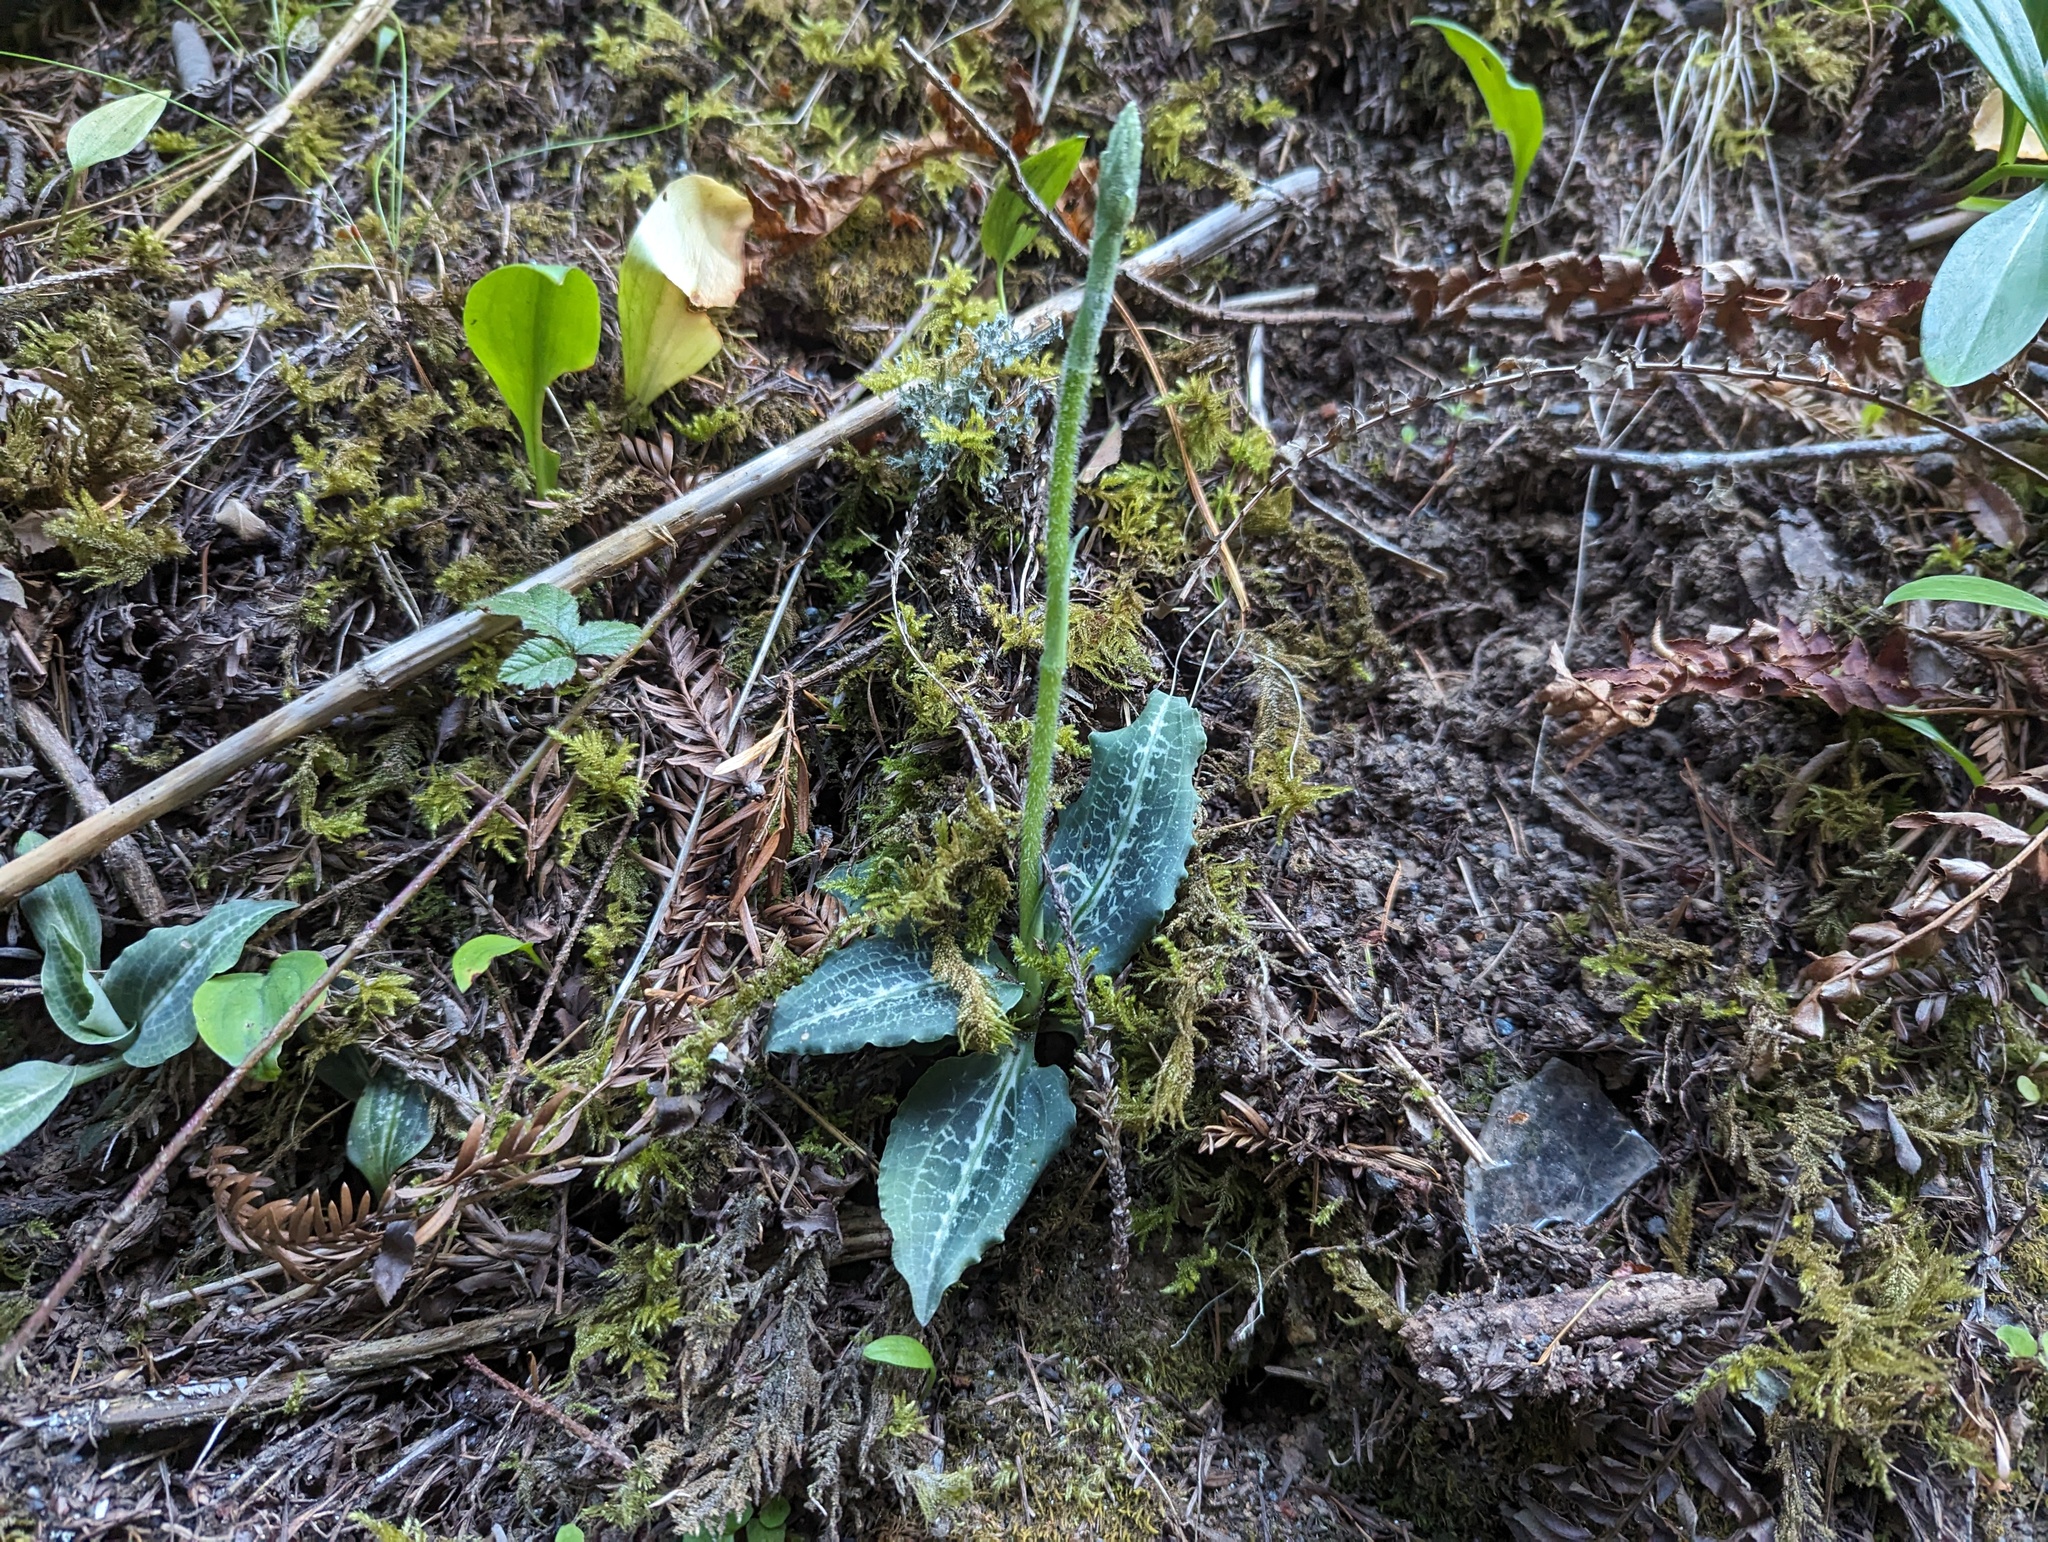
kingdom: Plantae
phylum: Tracheophyta
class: Liliopsida
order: Asparagales
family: Orchidaceae
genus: Goodyera
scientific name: Goodyera oblongifolia
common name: Giant rattlesnake-plantain
